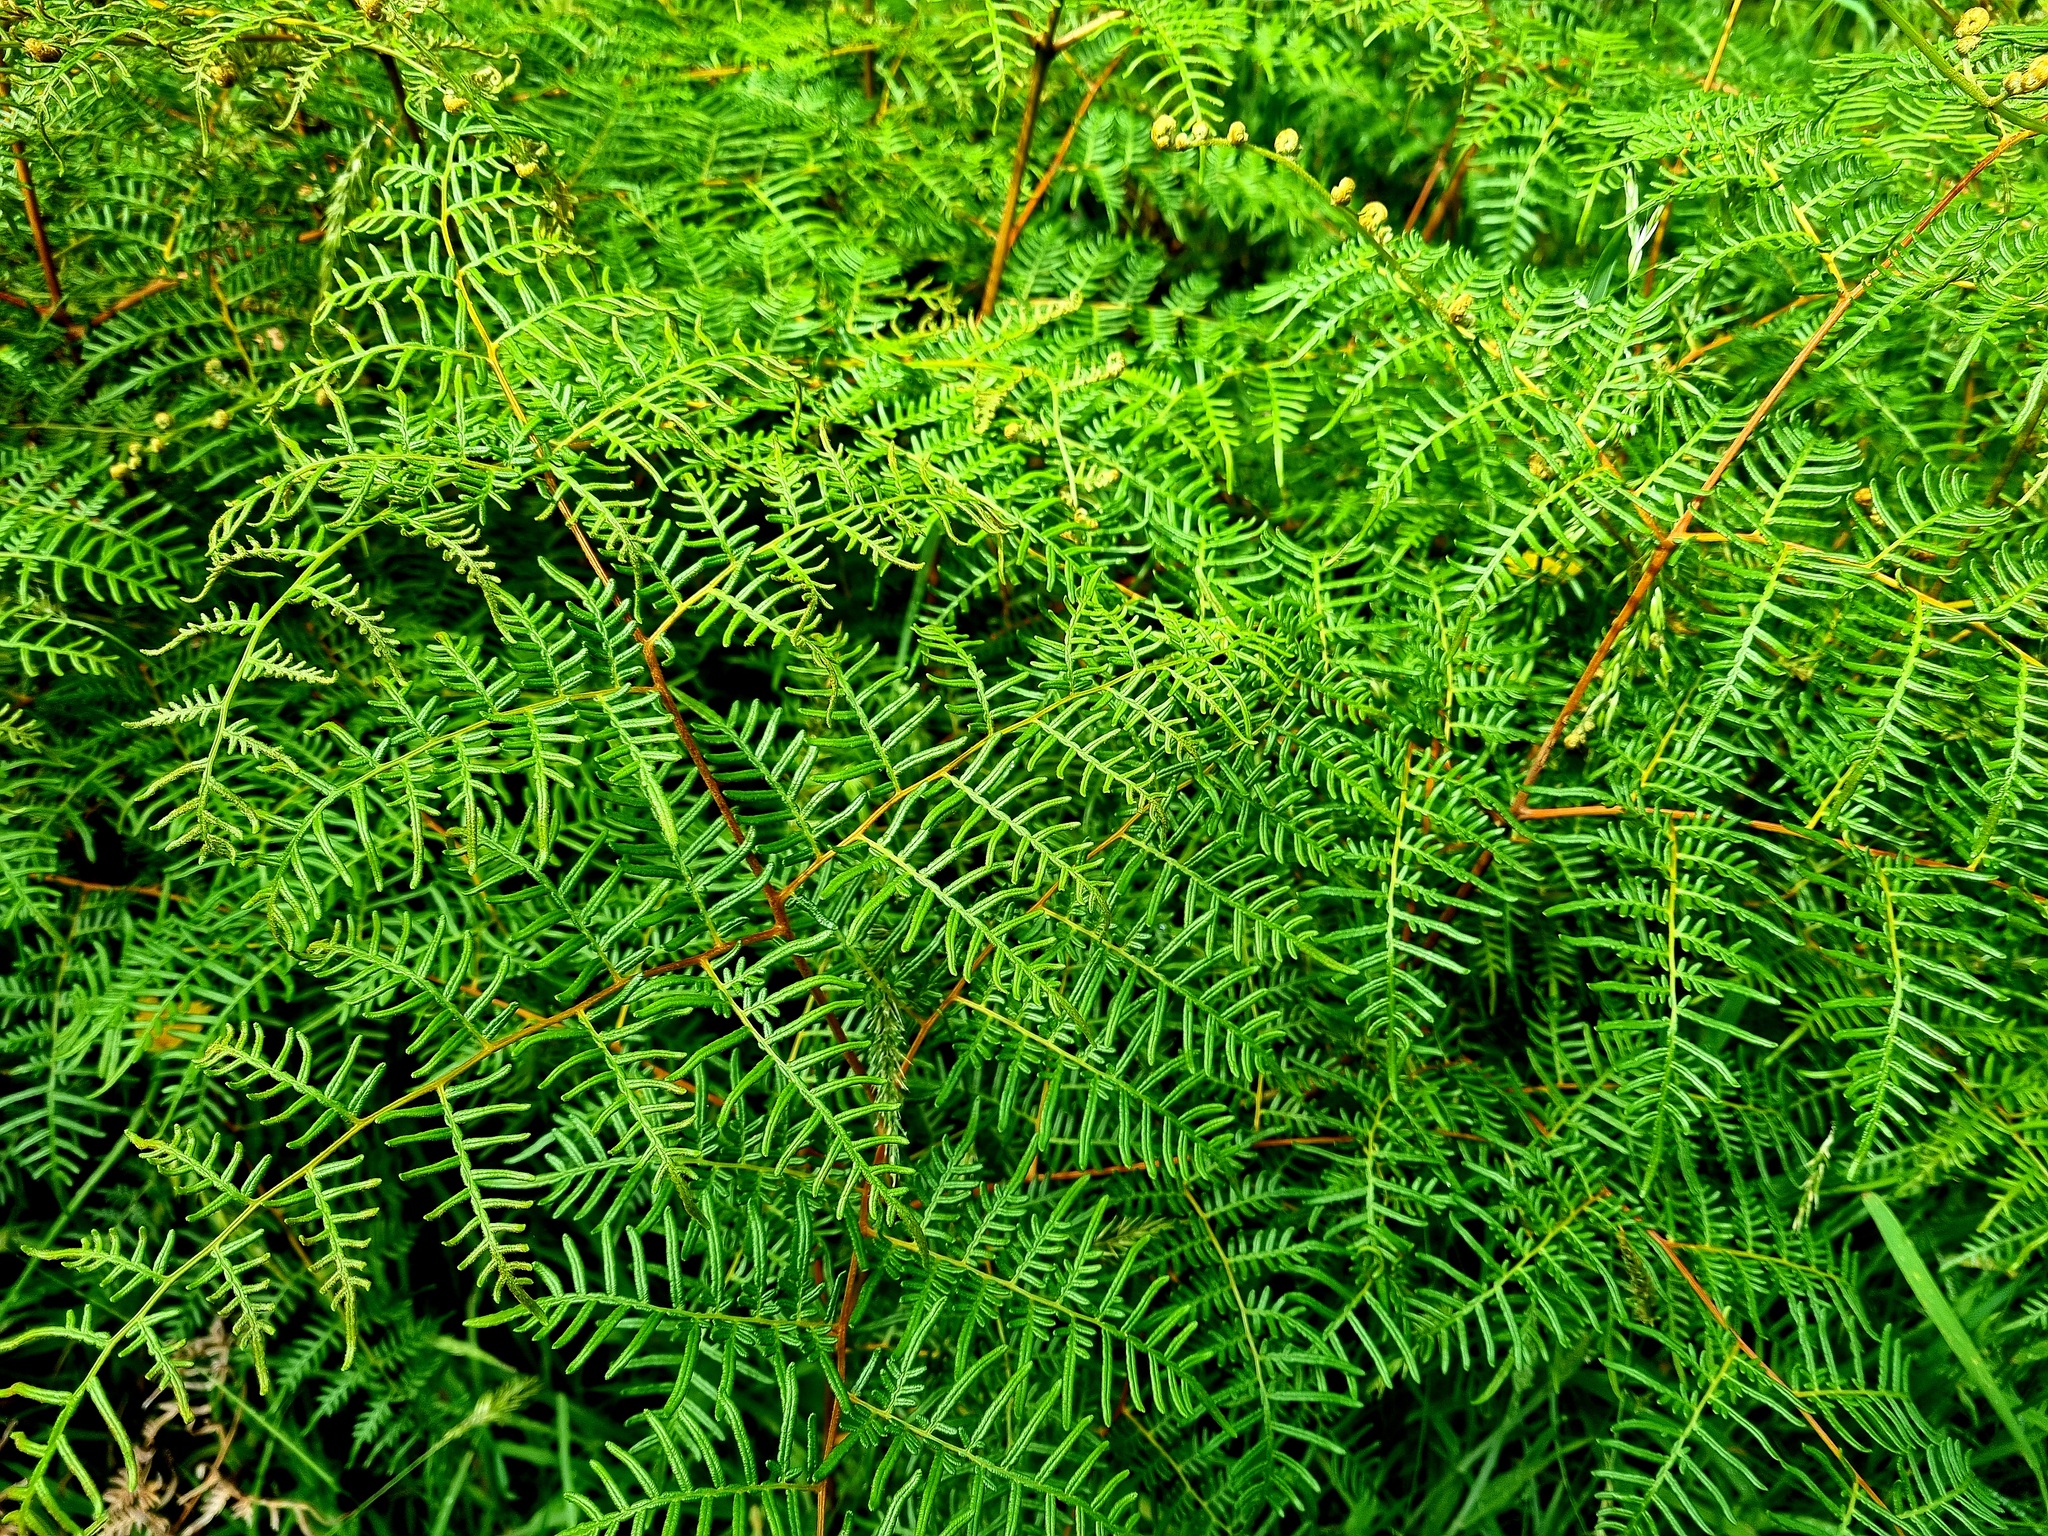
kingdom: Plantae
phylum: Tracheophyta
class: Polypodiopsida
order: Polypodiales
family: Dennstaedtiaceae
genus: Pteridium
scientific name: Pteridium esculentum
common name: Bracken fern
